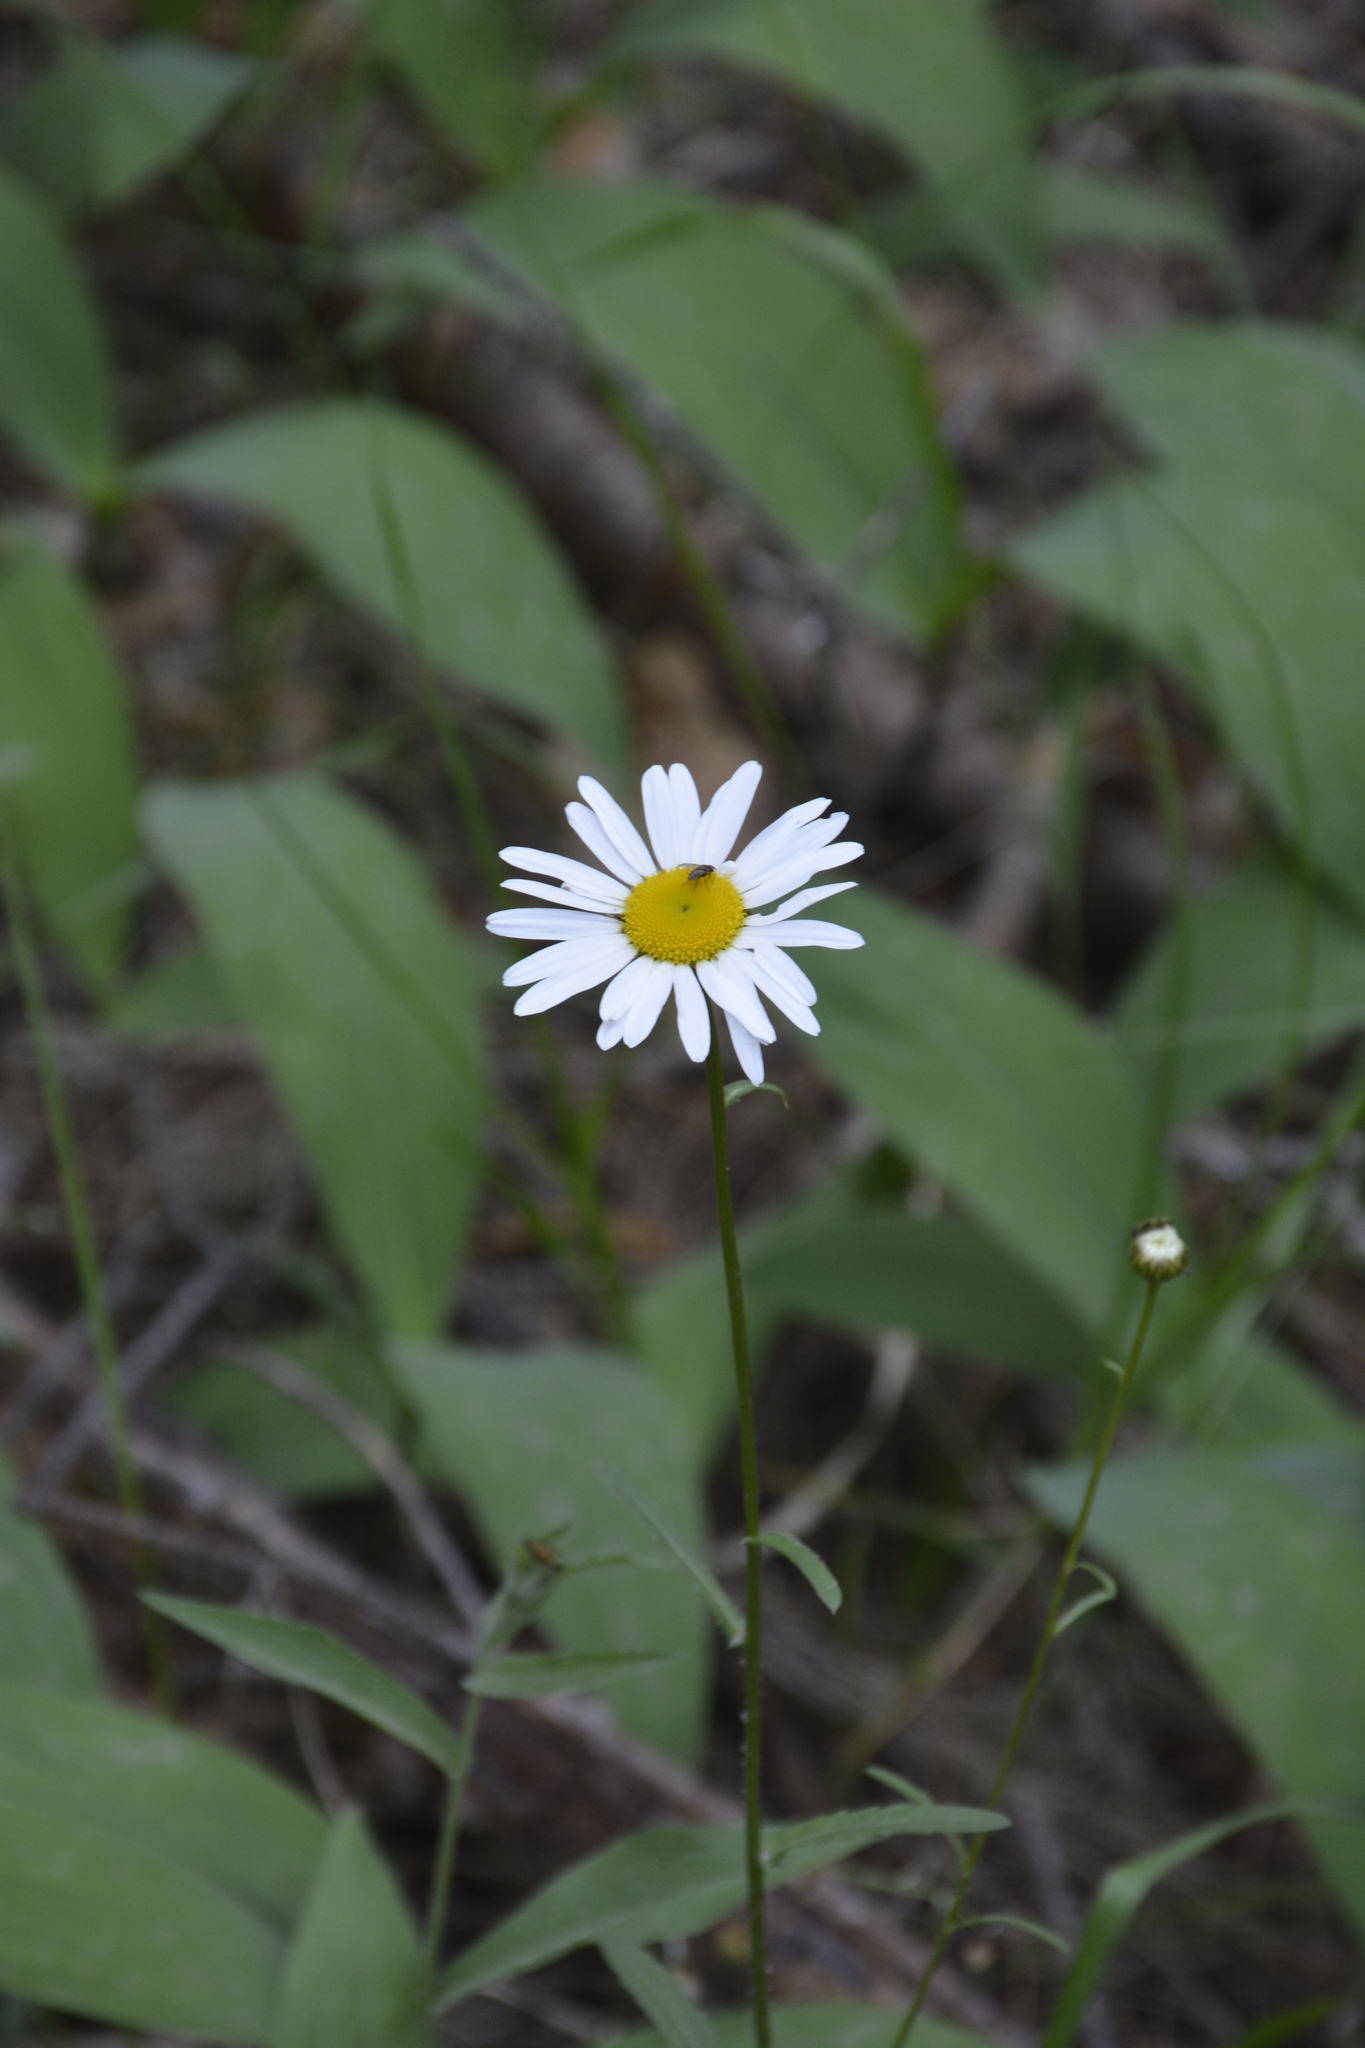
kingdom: Plantae
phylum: Tracheophyta
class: Magnoliopsida
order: Asterales
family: Asteraceae
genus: Leucanthemum
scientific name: Leucanthemum vulgare
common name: Oxeye daisy
